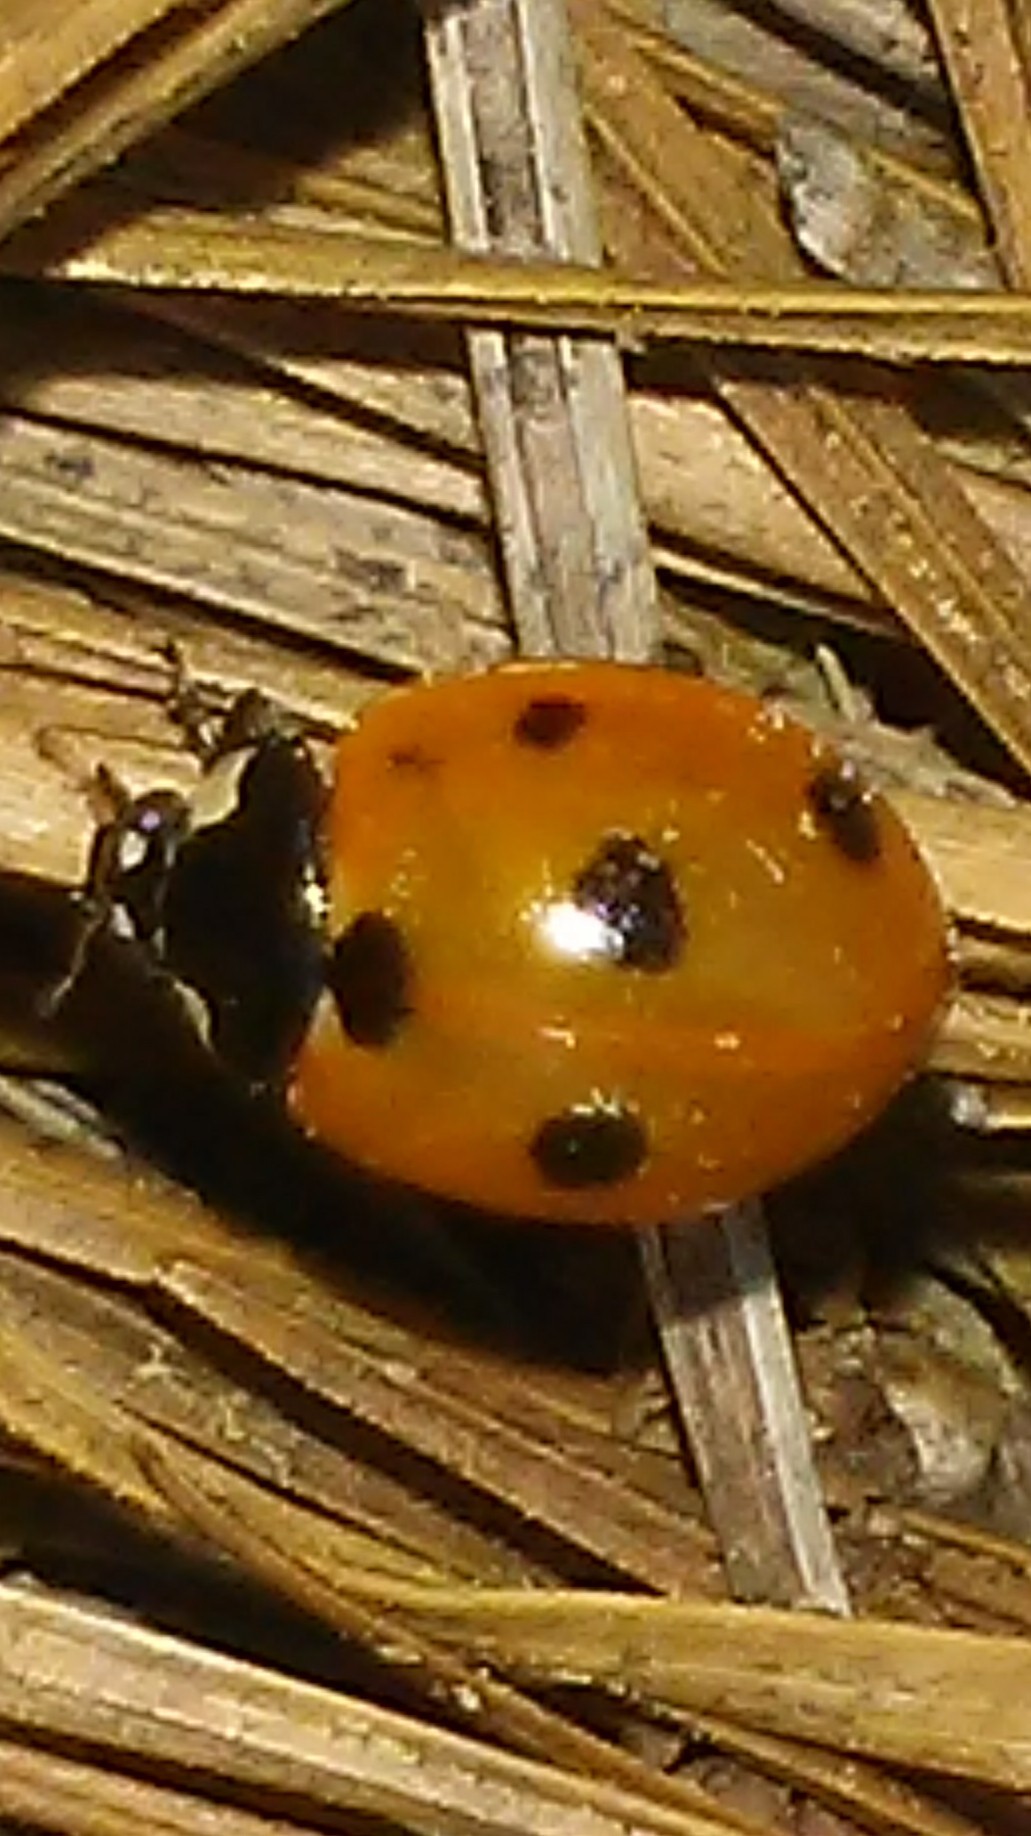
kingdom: Animalia
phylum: Arthropoda
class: Insecta
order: Coleoptera
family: Coccinellidae
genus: Coccinella
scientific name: Coccinella septempunctata
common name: Sevenspotted lady beetle
